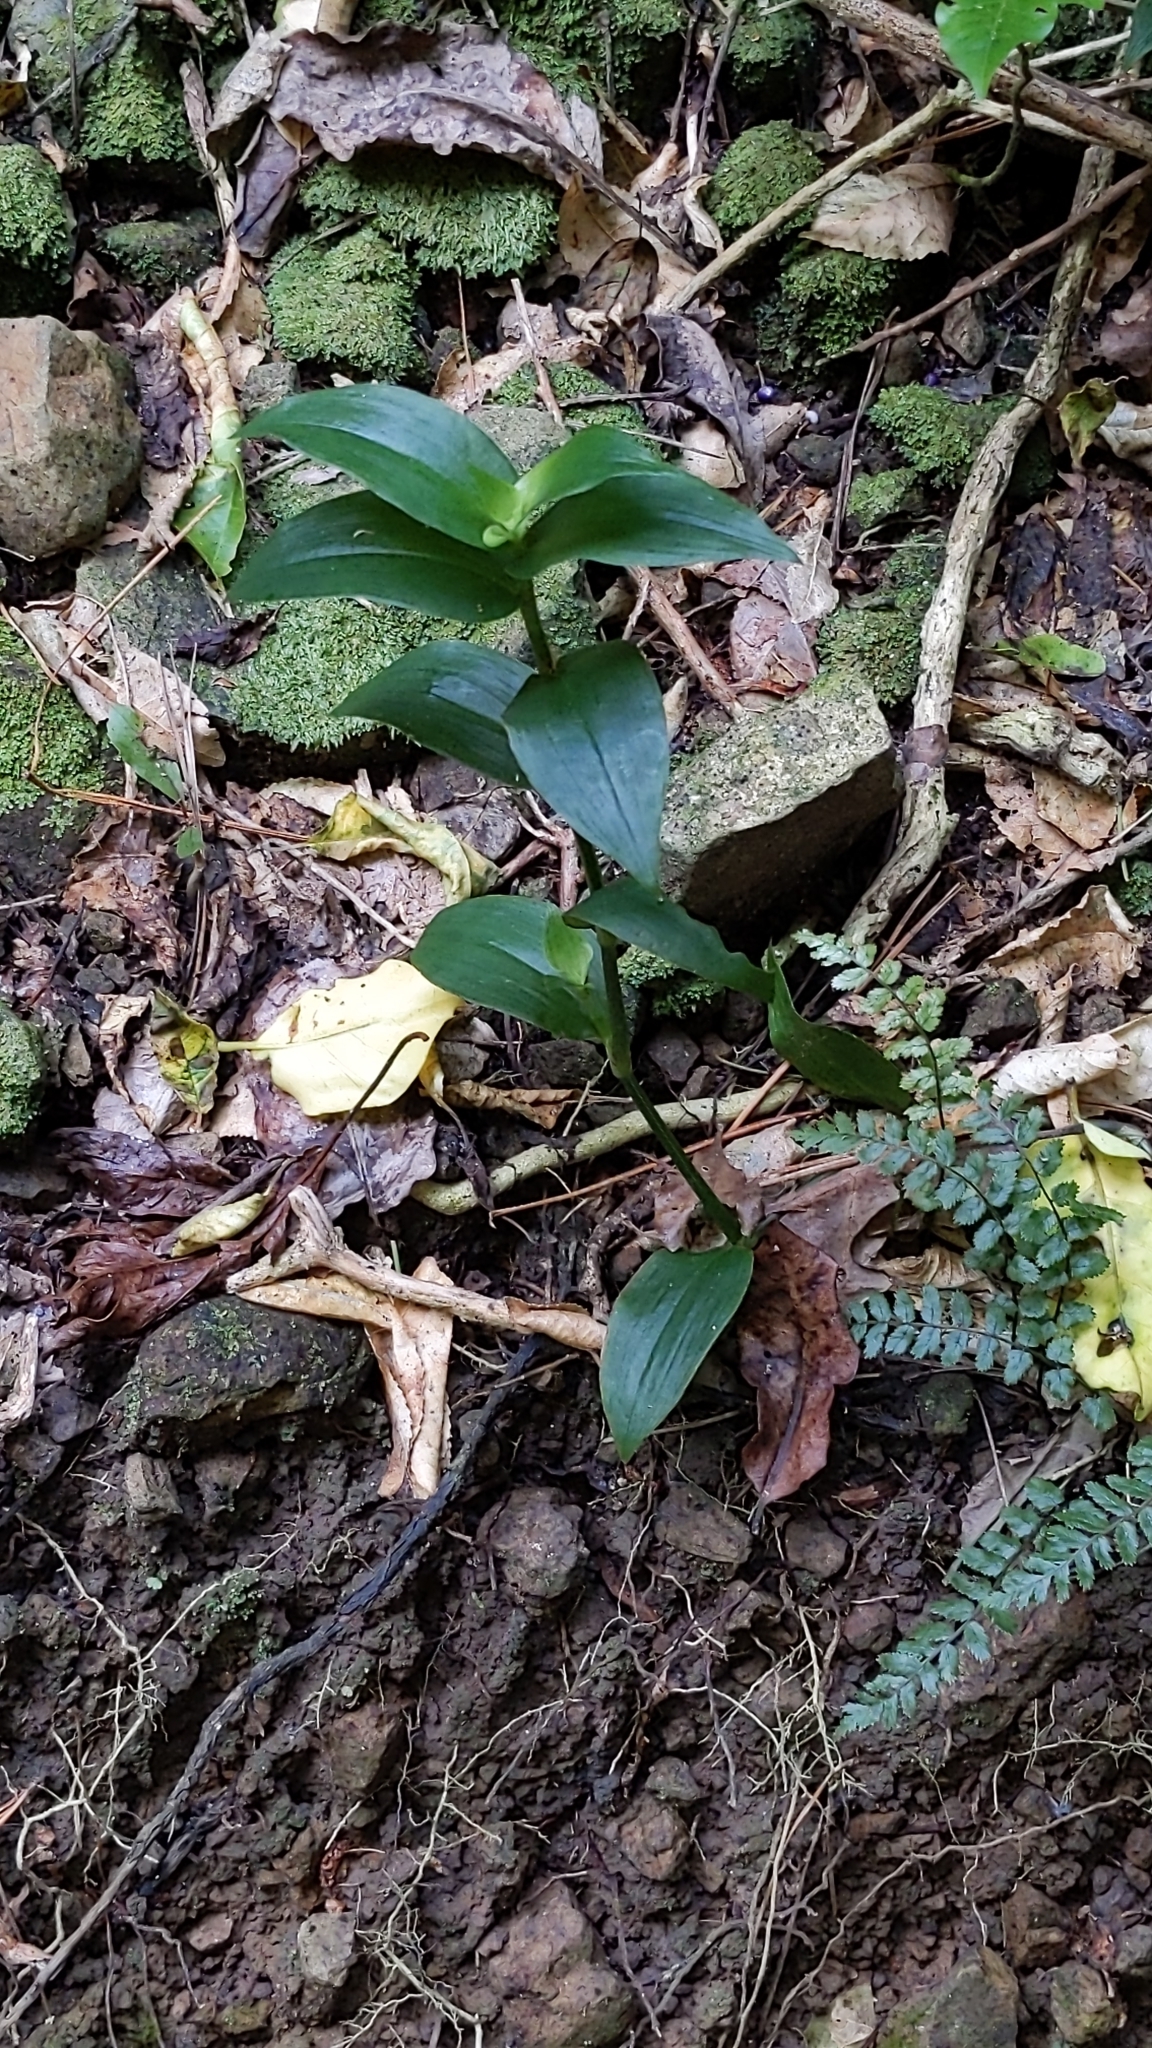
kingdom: Plantae
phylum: Tracheophyta
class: Liliopsida
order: Commelinales
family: Commelinaceae
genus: Tradescantia
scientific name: Tradescantia fluminensis
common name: Wandering-jew
